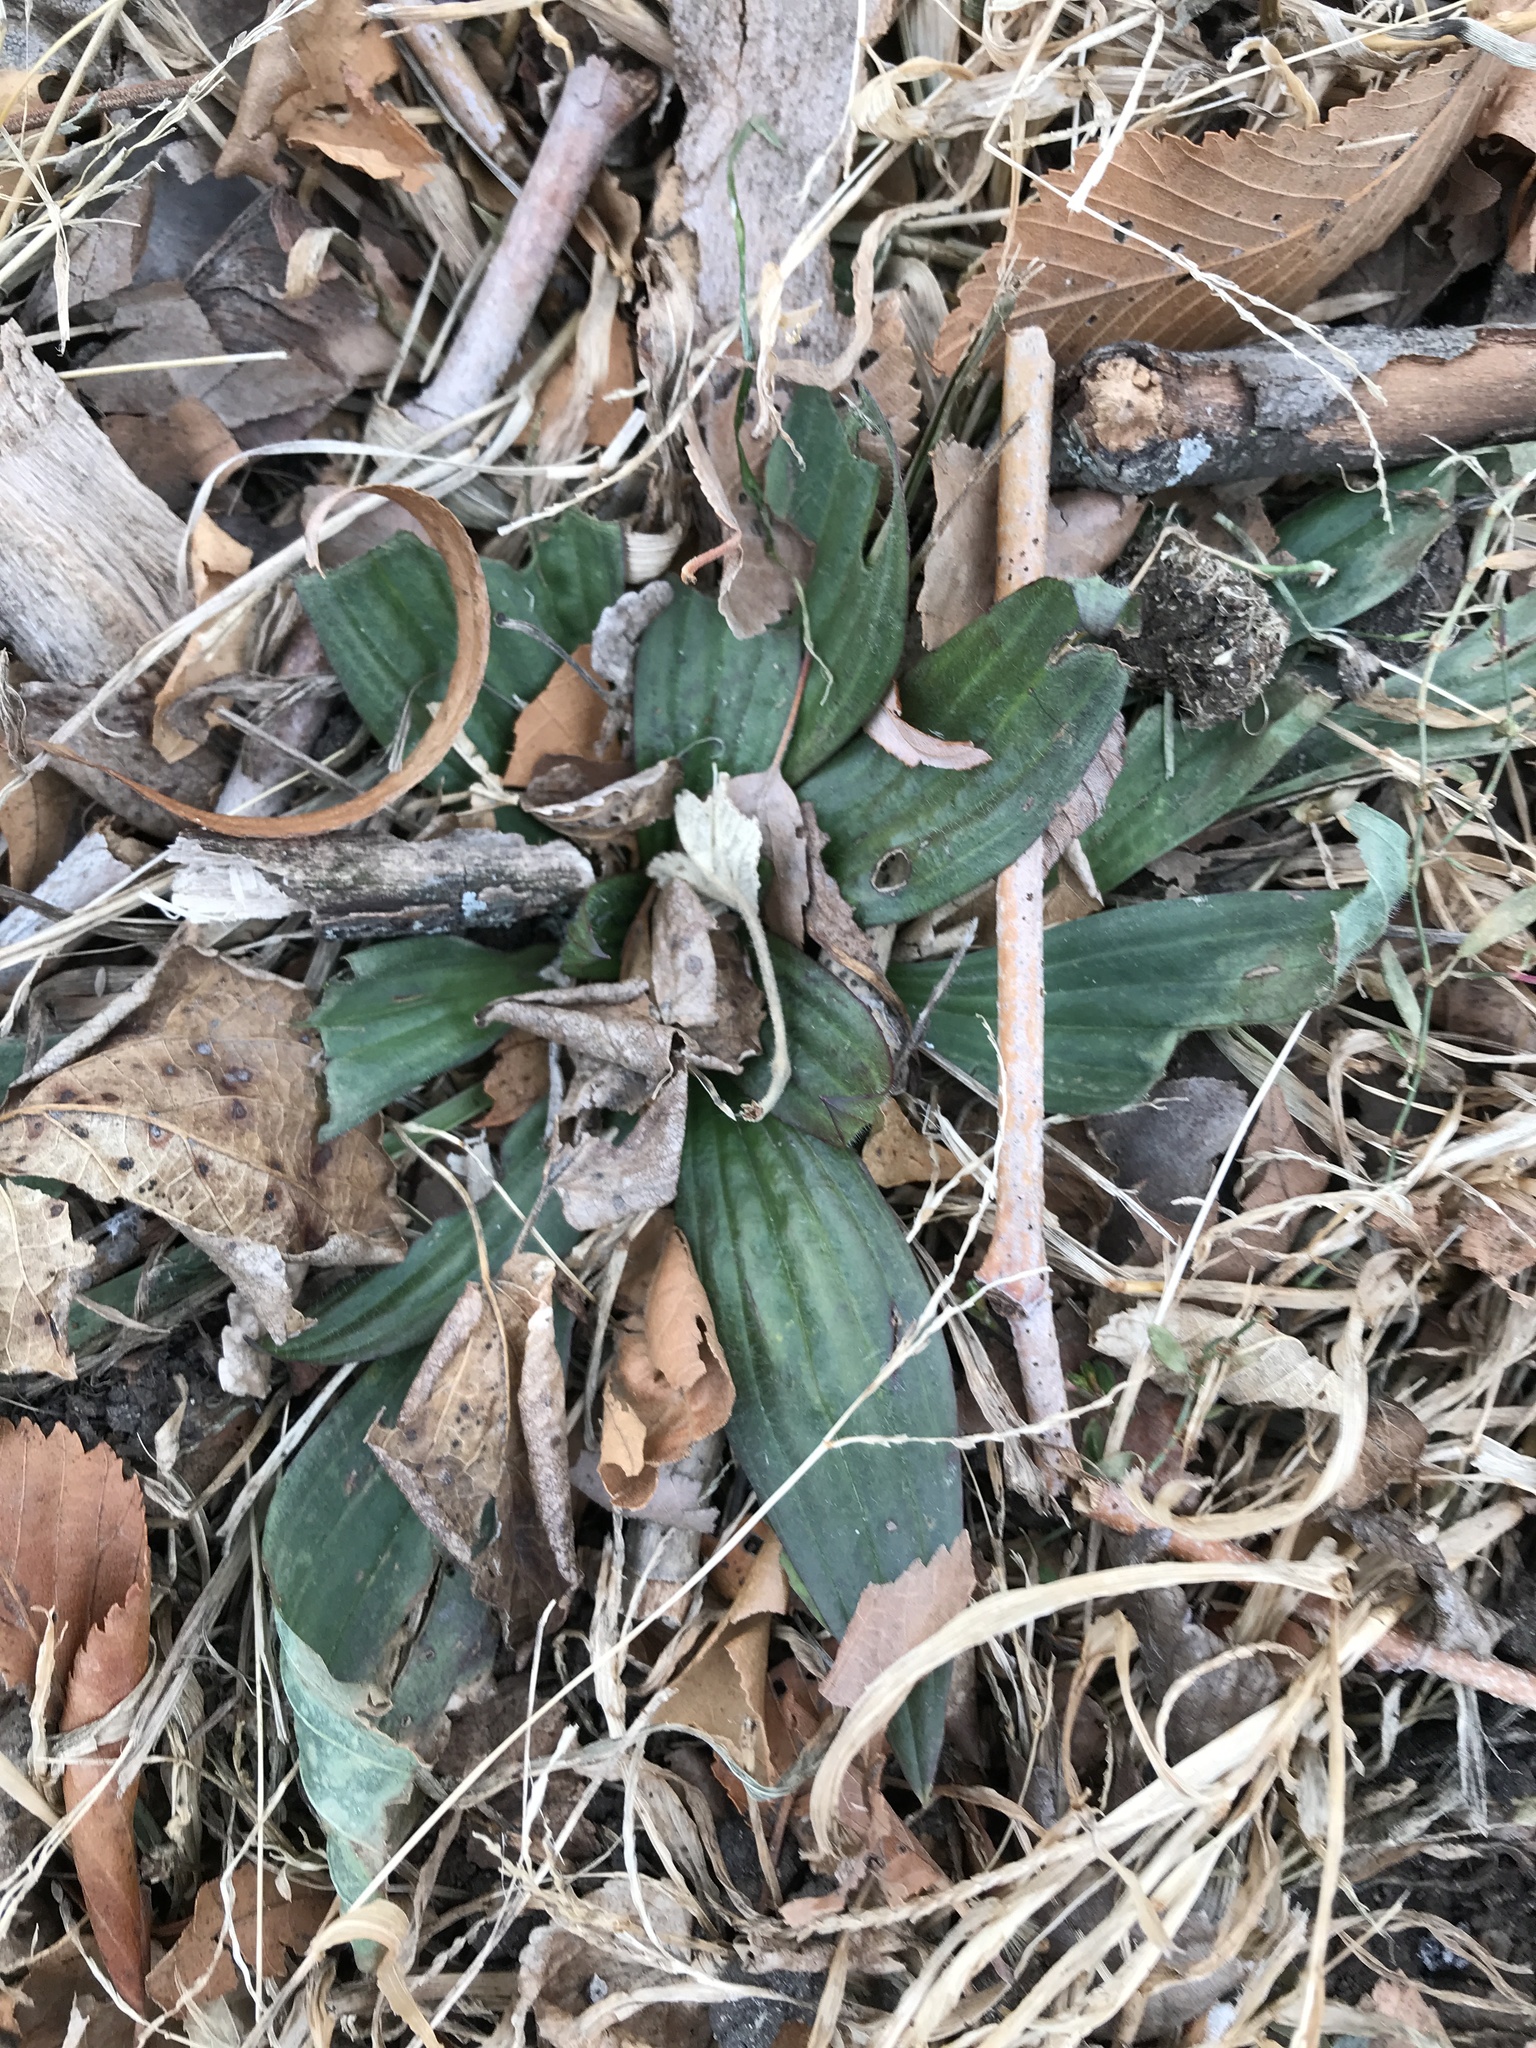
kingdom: Plantae
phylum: Tracheophyta
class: Magnoliopsida
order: Lamiales
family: Plantaginaceae
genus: Plantago
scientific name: Plantago lanceolata
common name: Ribwort plantain
